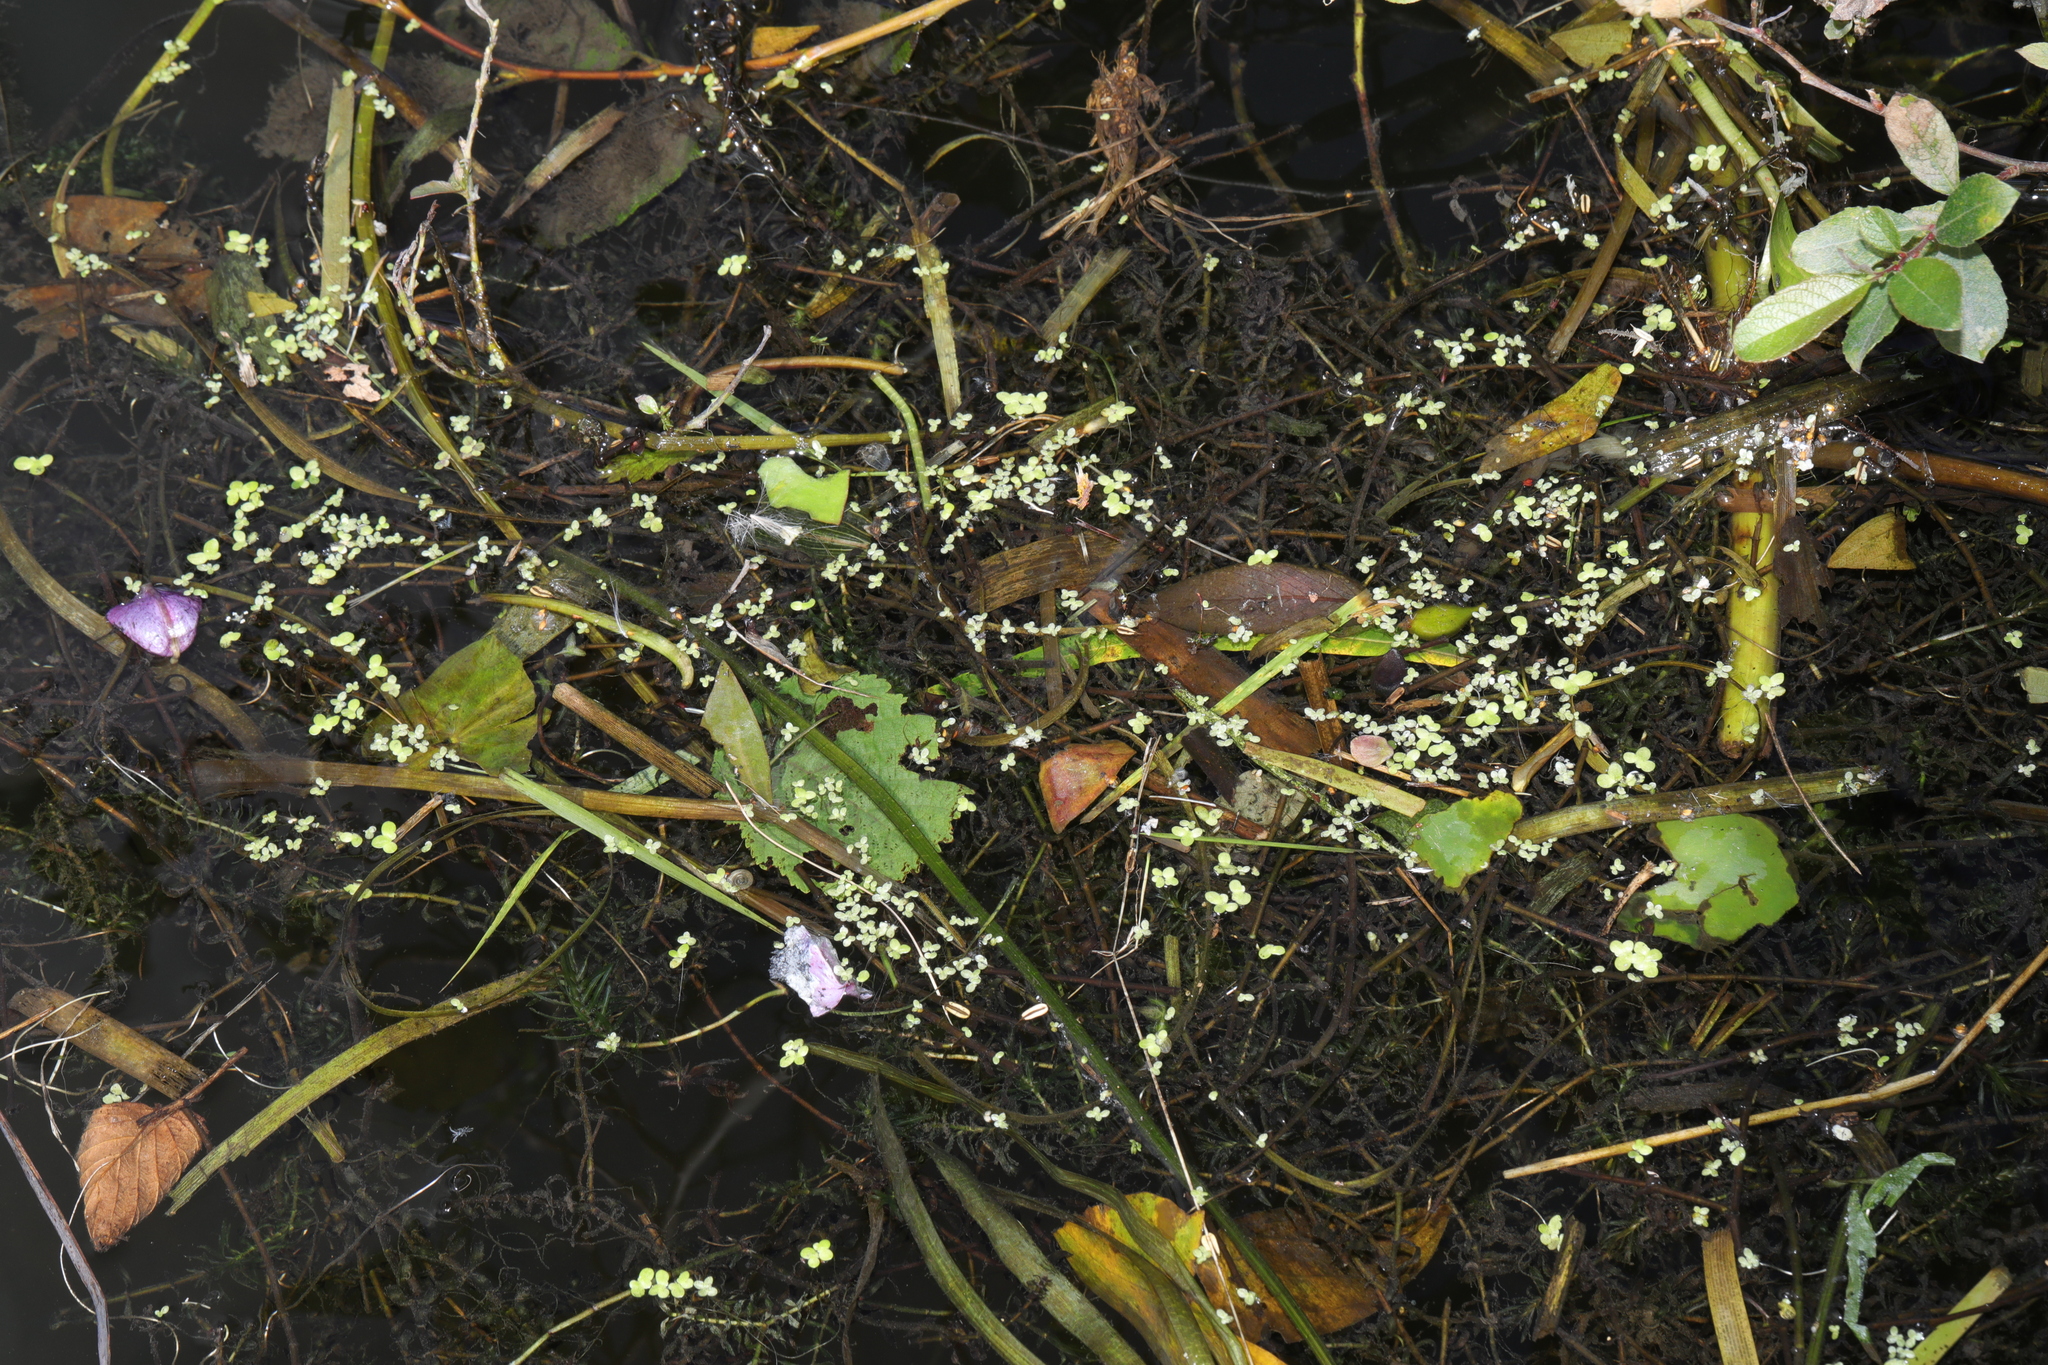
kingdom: Plantae
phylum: Tracheophyta
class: Liliopsida
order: Alismatales
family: Araceae
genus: Lemna
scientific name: Lemna minor
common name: Common duckweed
